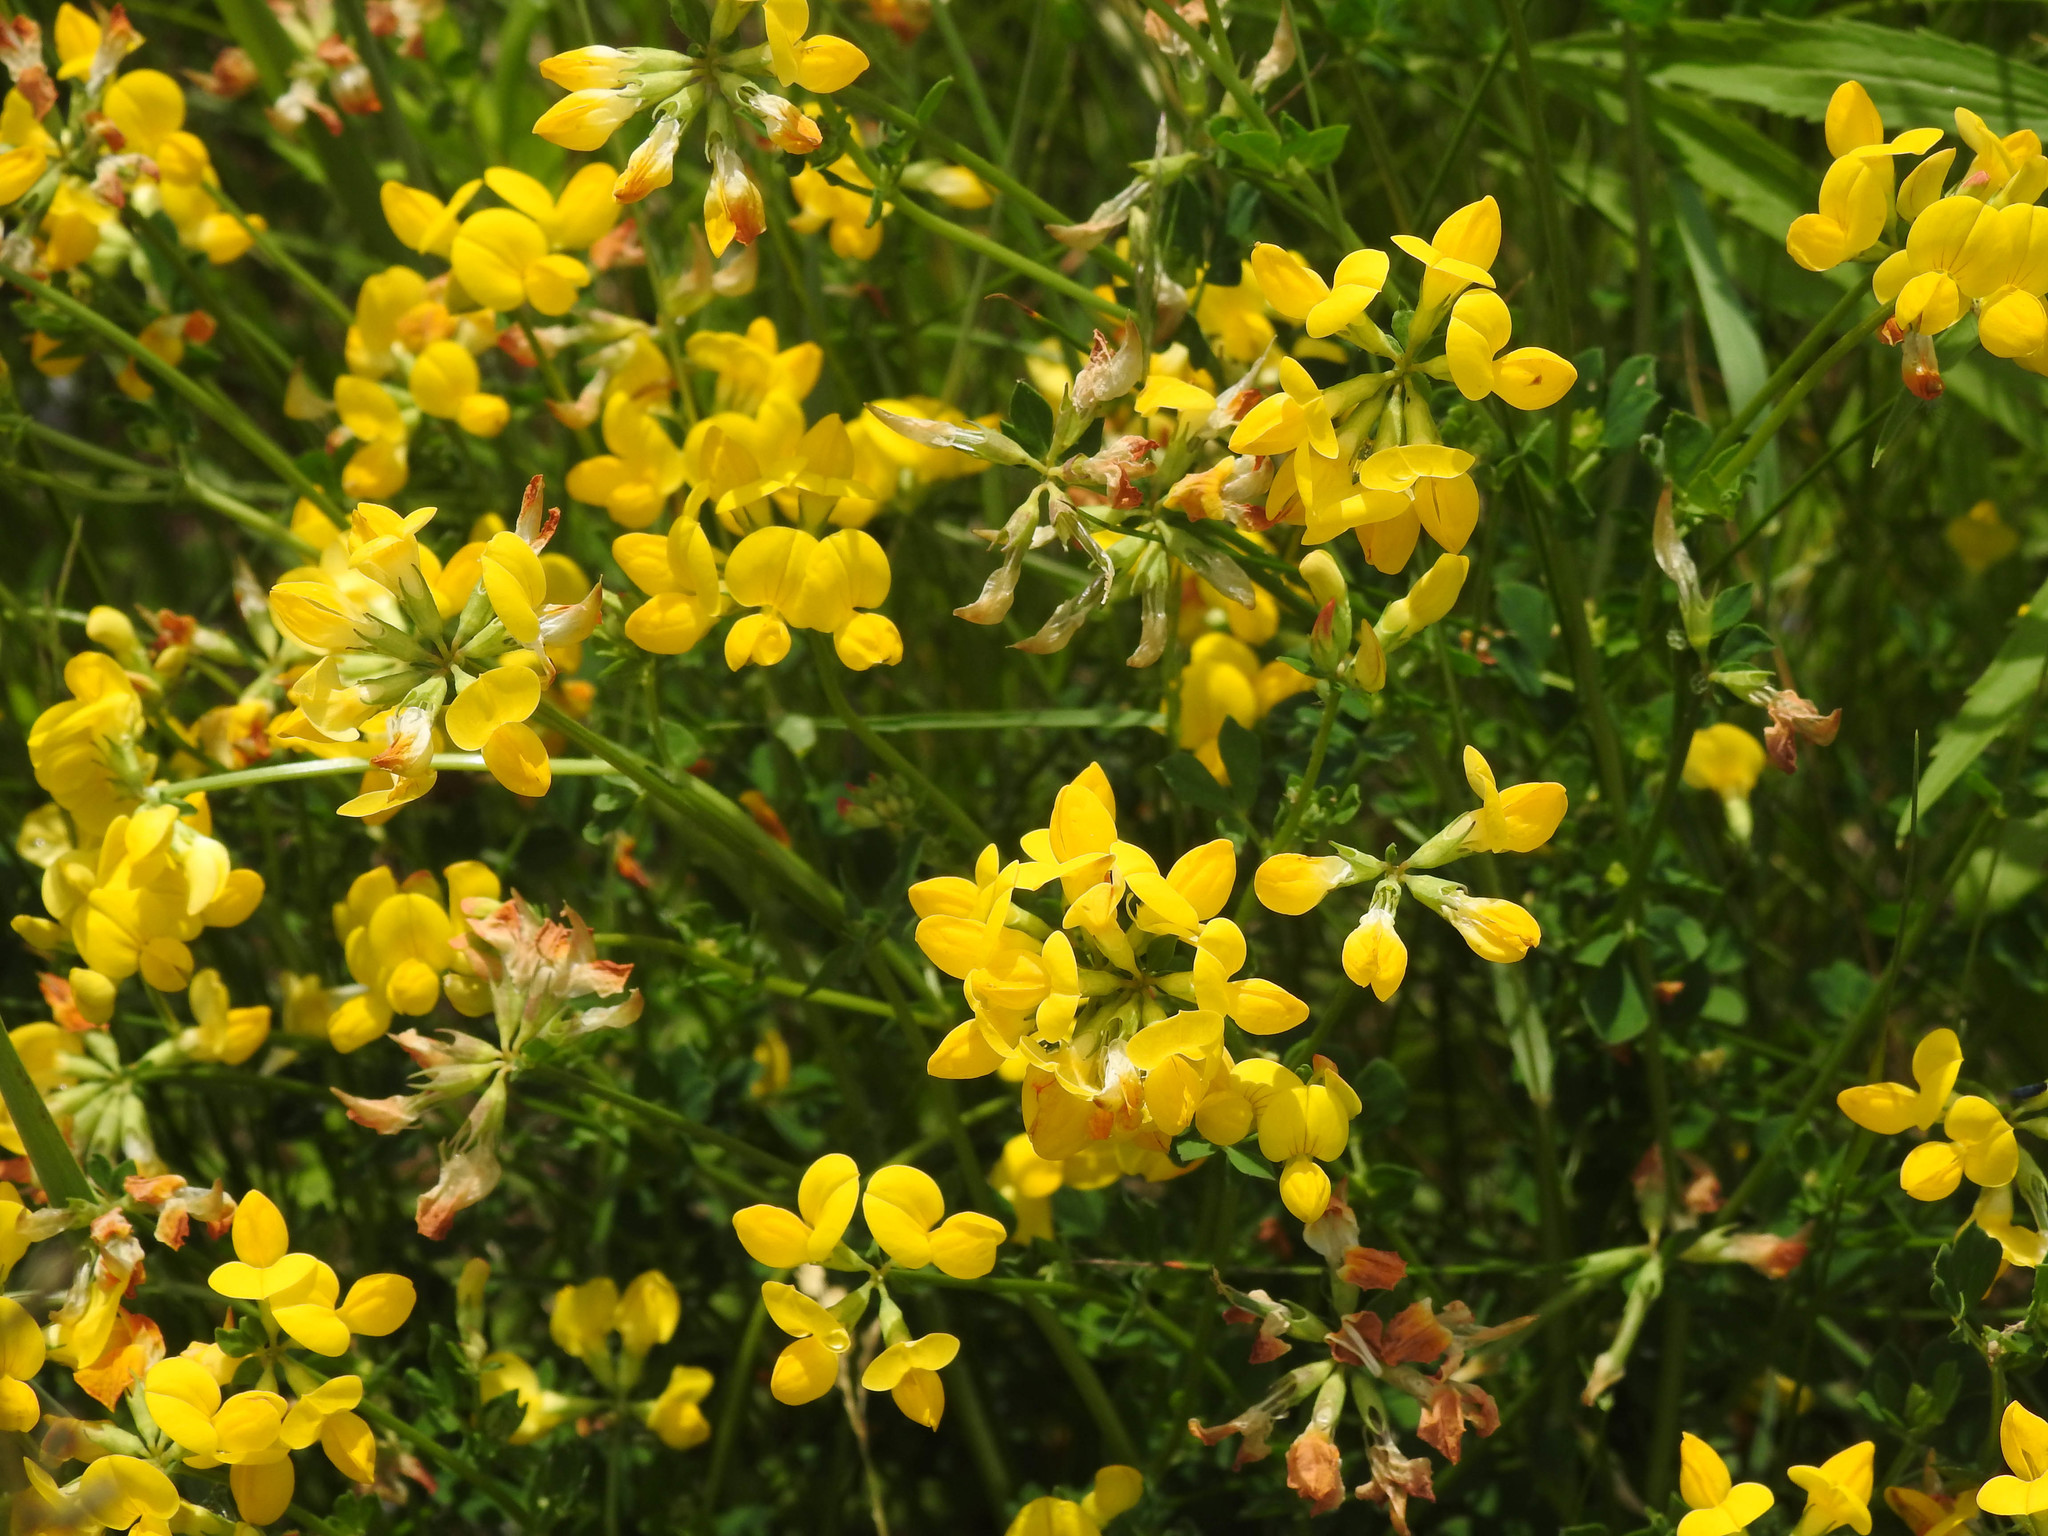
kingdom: Plantae
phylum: Tracheophyta
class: Magnoliopsida
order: Fabales
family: Fabaceae
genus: Lotus
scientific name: Lotus corniculatus
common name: Common bird's-foot-trefoil
